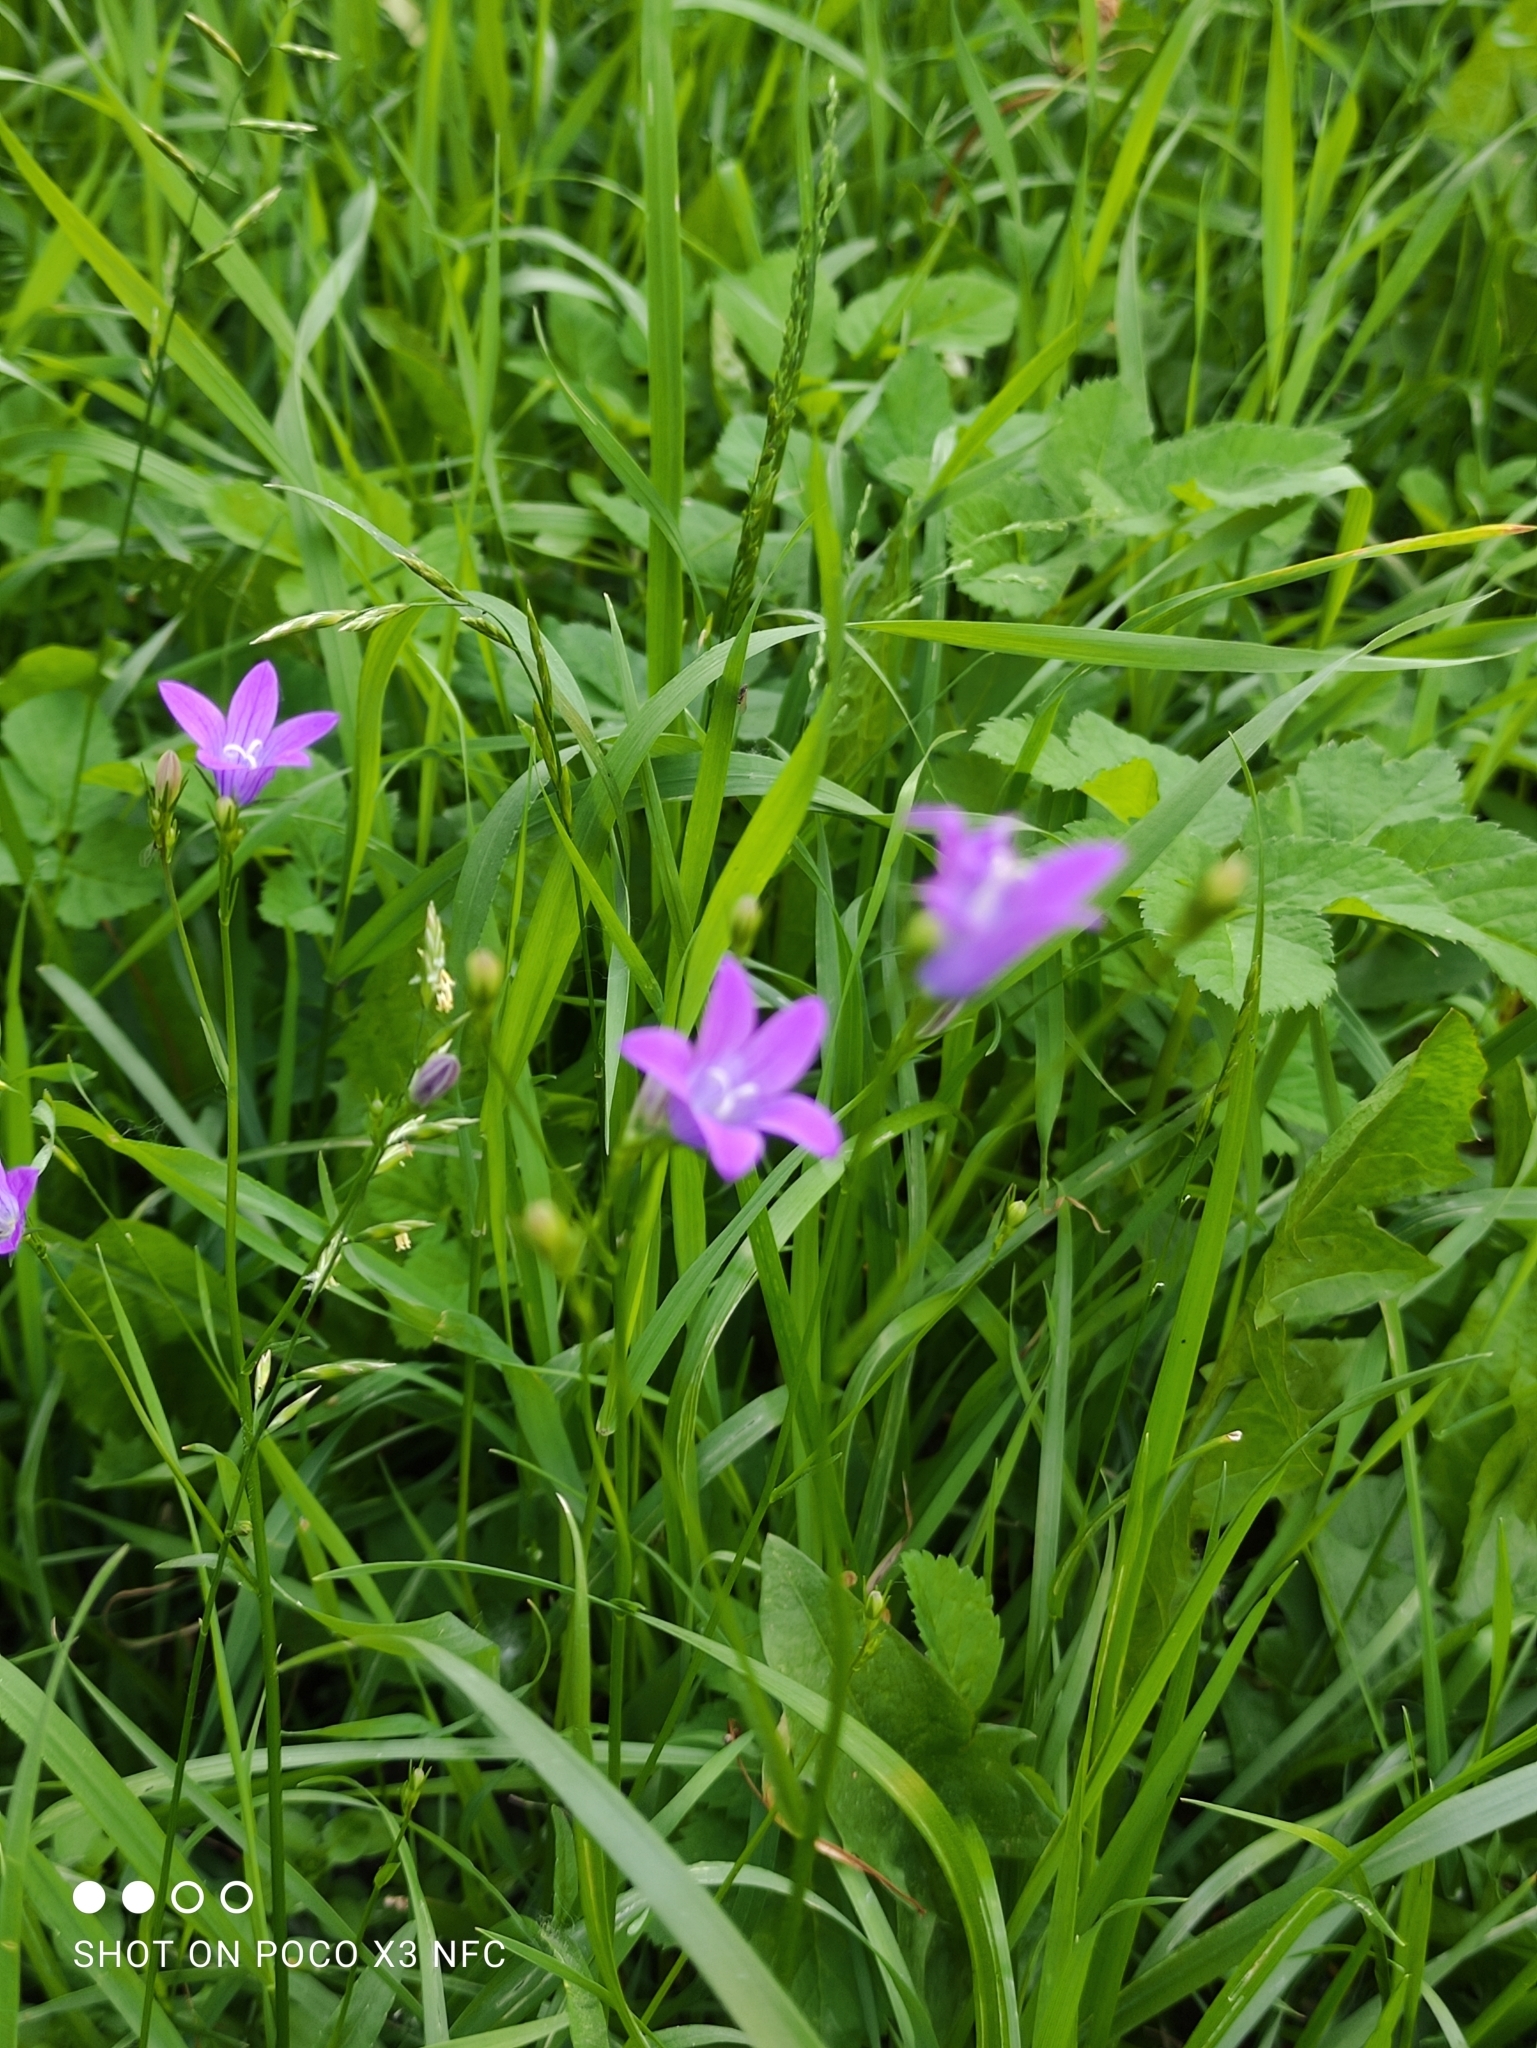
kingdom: Plantae
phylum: Tracheophyta
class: Magnoliopsida
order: Asterales
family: Campanulaceae
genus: Campanula
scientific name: Campanula patula
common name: Spreading bellflower
